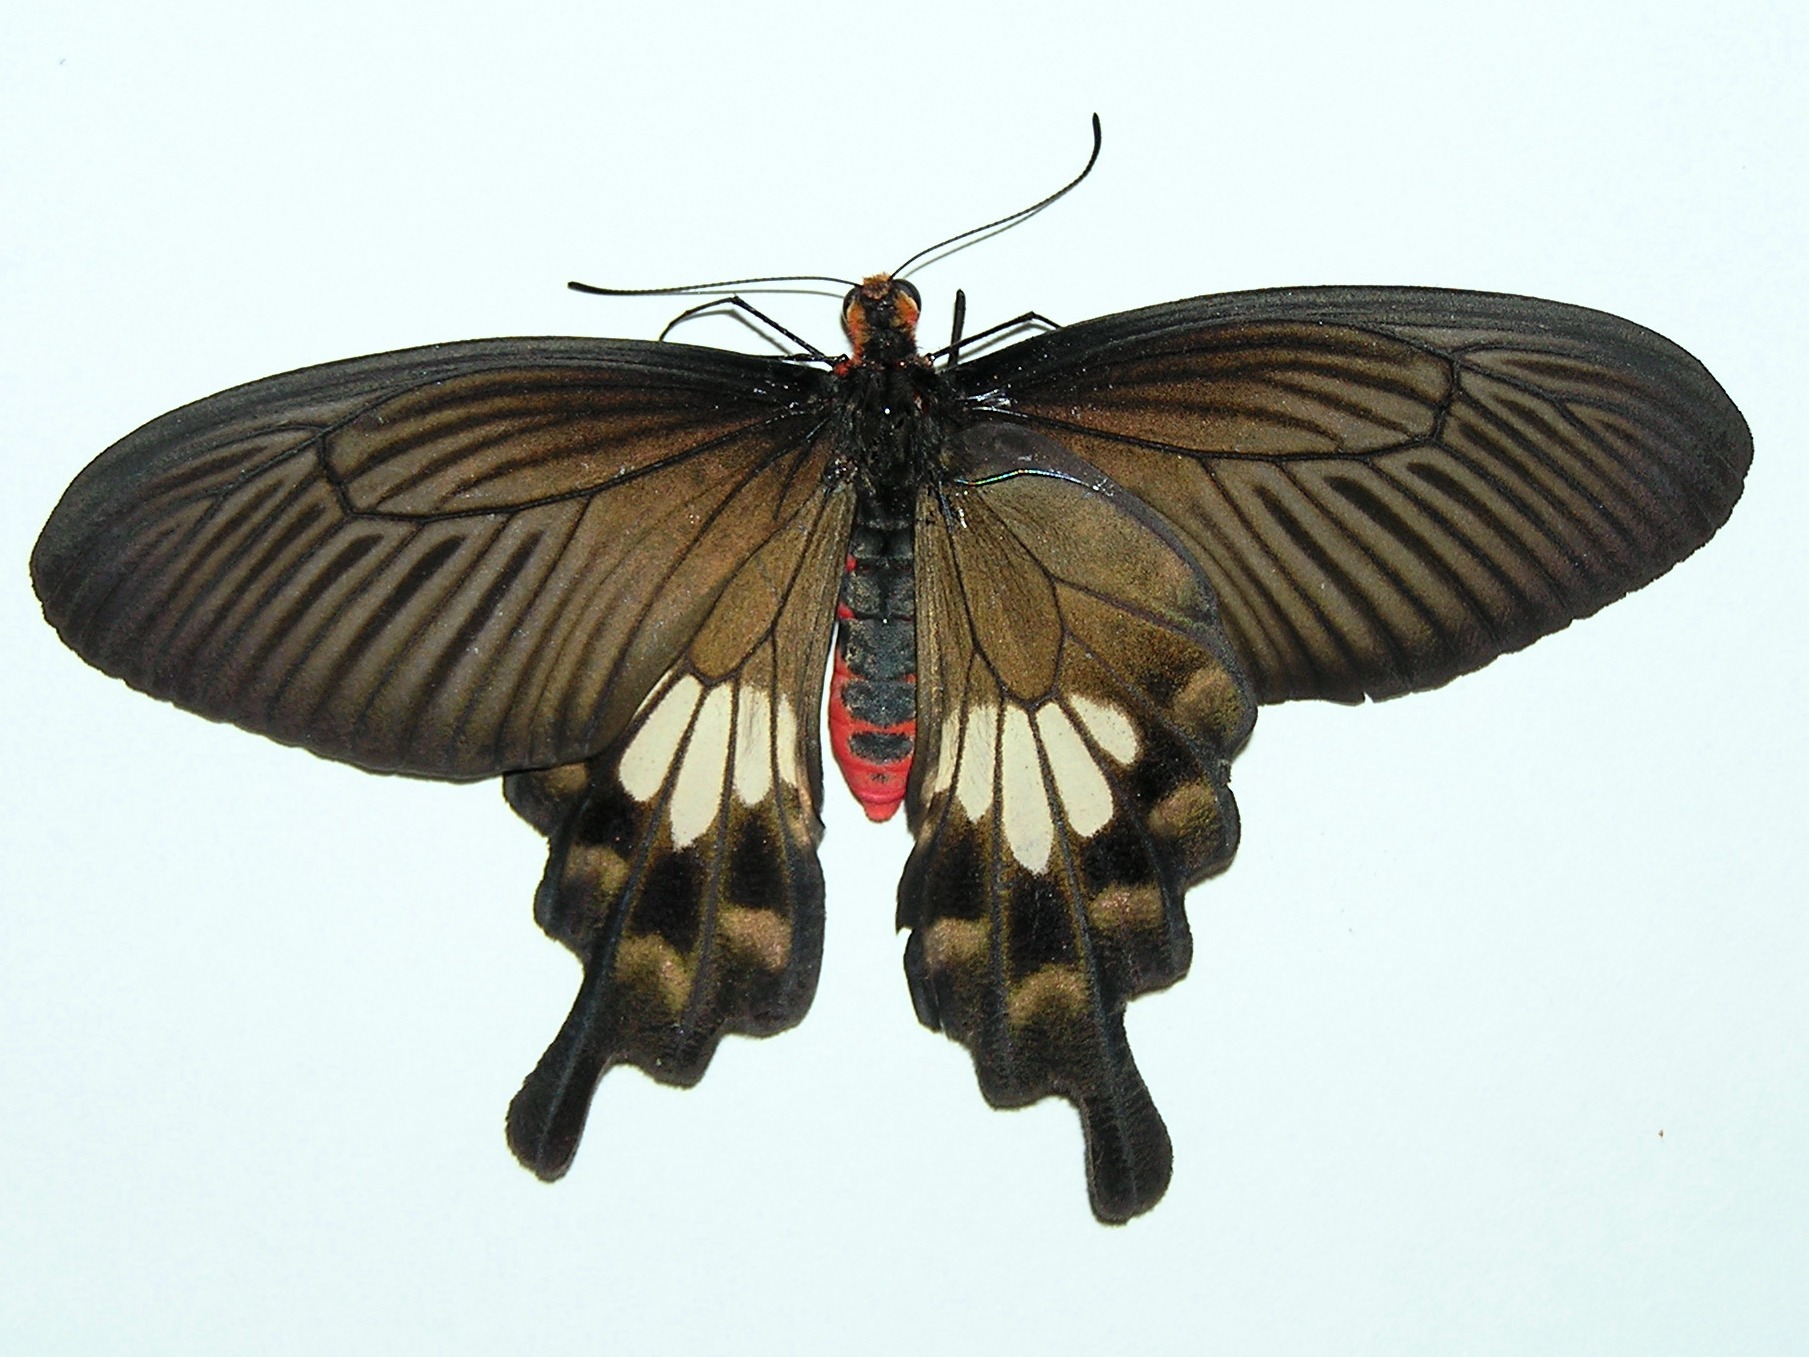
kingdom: Animalia
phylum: Arthropoda
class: Insecta
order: Lepidoptera
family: Papilionidae
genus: Pachliopta
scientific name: Pachliopta aristolochiae
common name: Common rose
